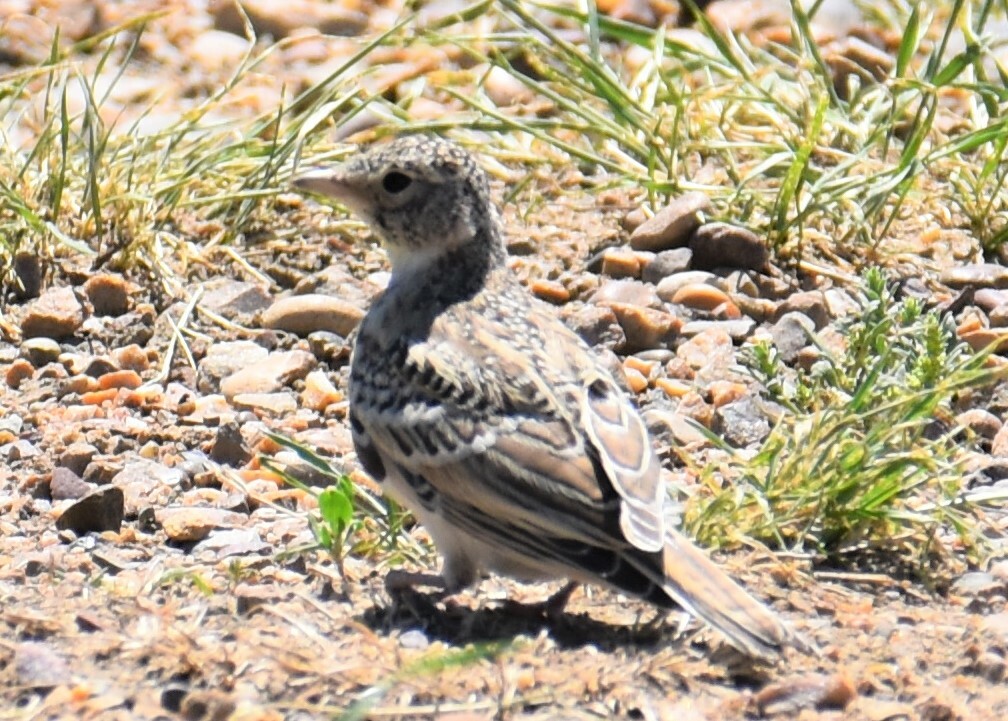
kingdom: Animalia
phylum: Chordata
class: Aves
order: Passeriformes
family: Alaudidae
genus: Eremophila
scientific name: Eremophila alpestris
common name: Horned lark
